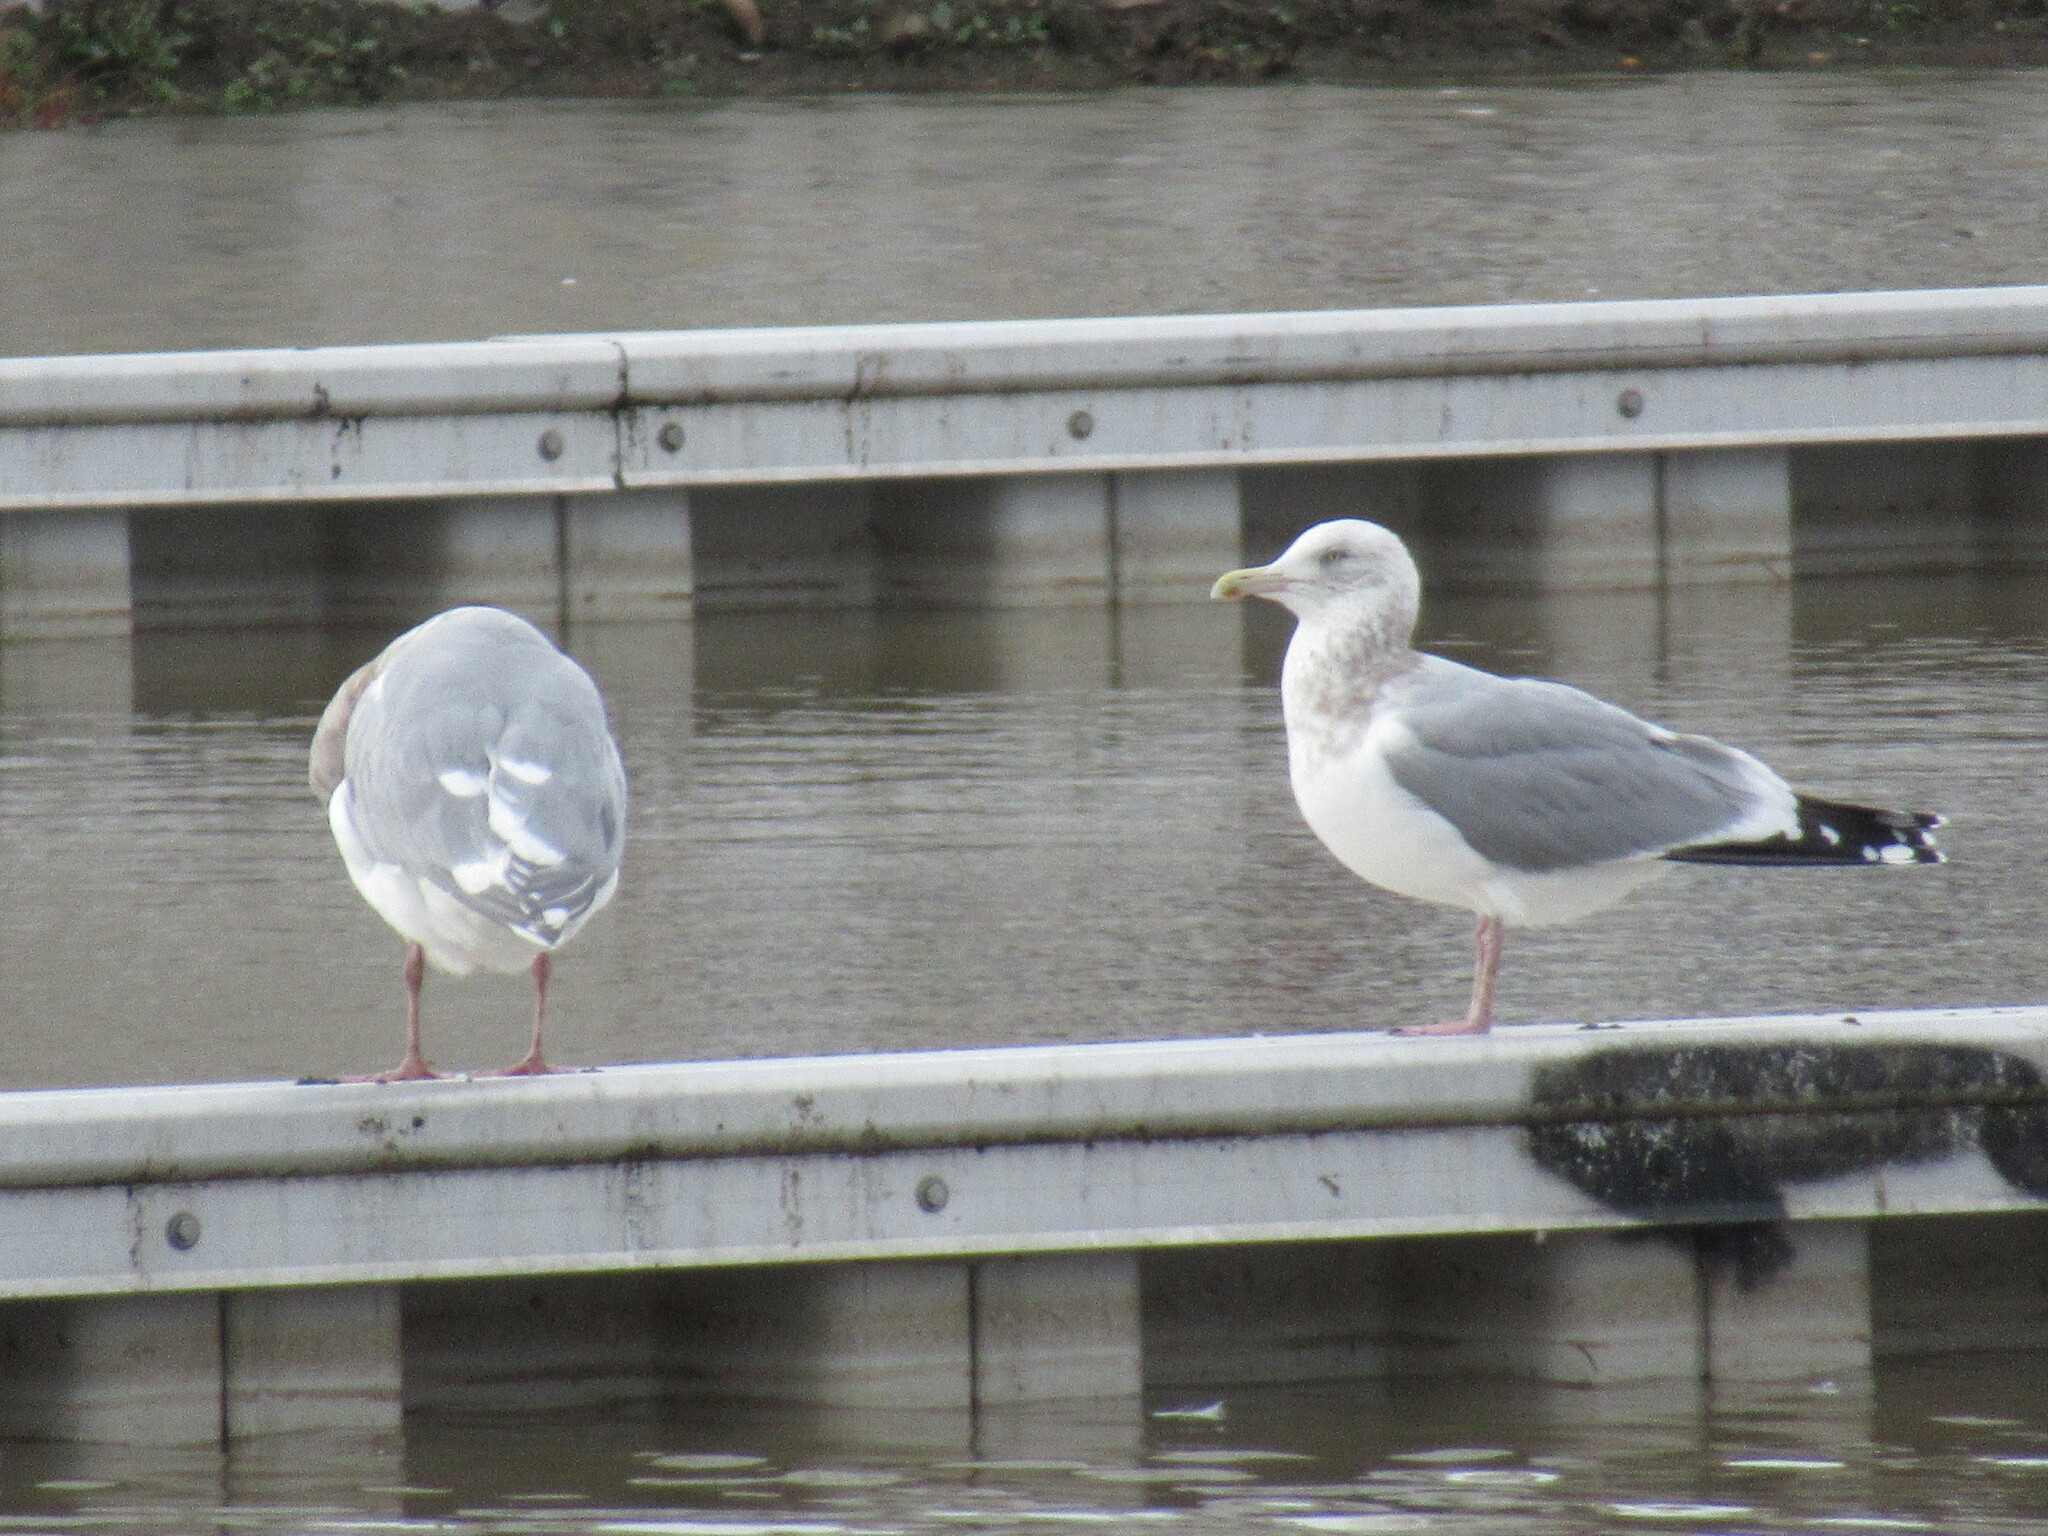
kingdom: Animalia
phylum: Chordata
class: Aves
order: Charadriiformes
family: Laridae
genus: Larus
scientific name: Larus argentatus
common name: Herring gull
